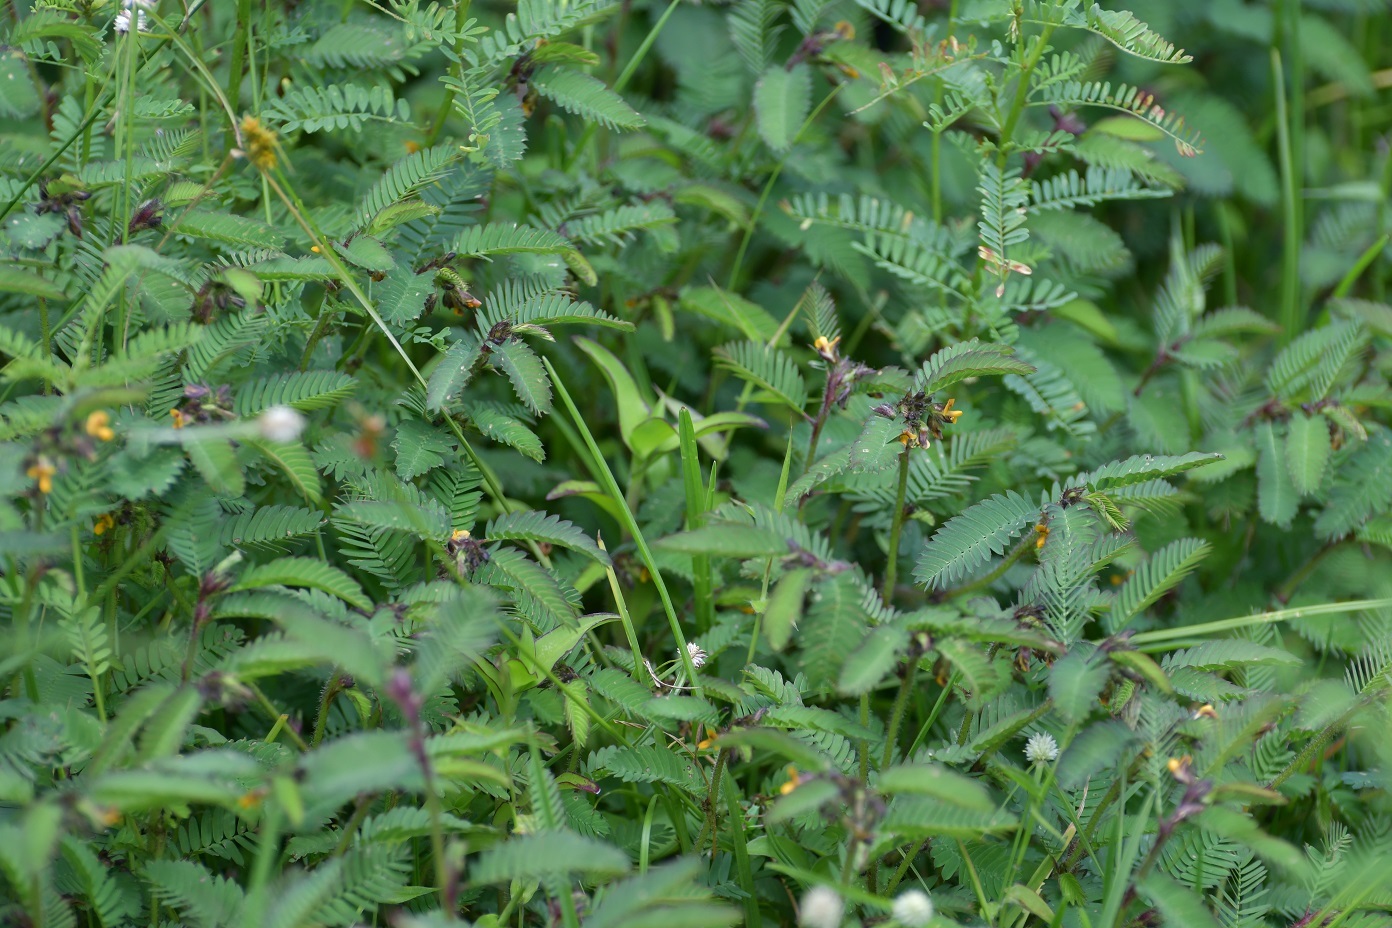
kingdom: Plantae
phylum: Tracheophyta
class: Magnoliopsida
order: Fabales
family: Fabaceae
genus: Aeschynomene
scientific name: Aeschynomene villosa
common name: Hairy-jointvetch
